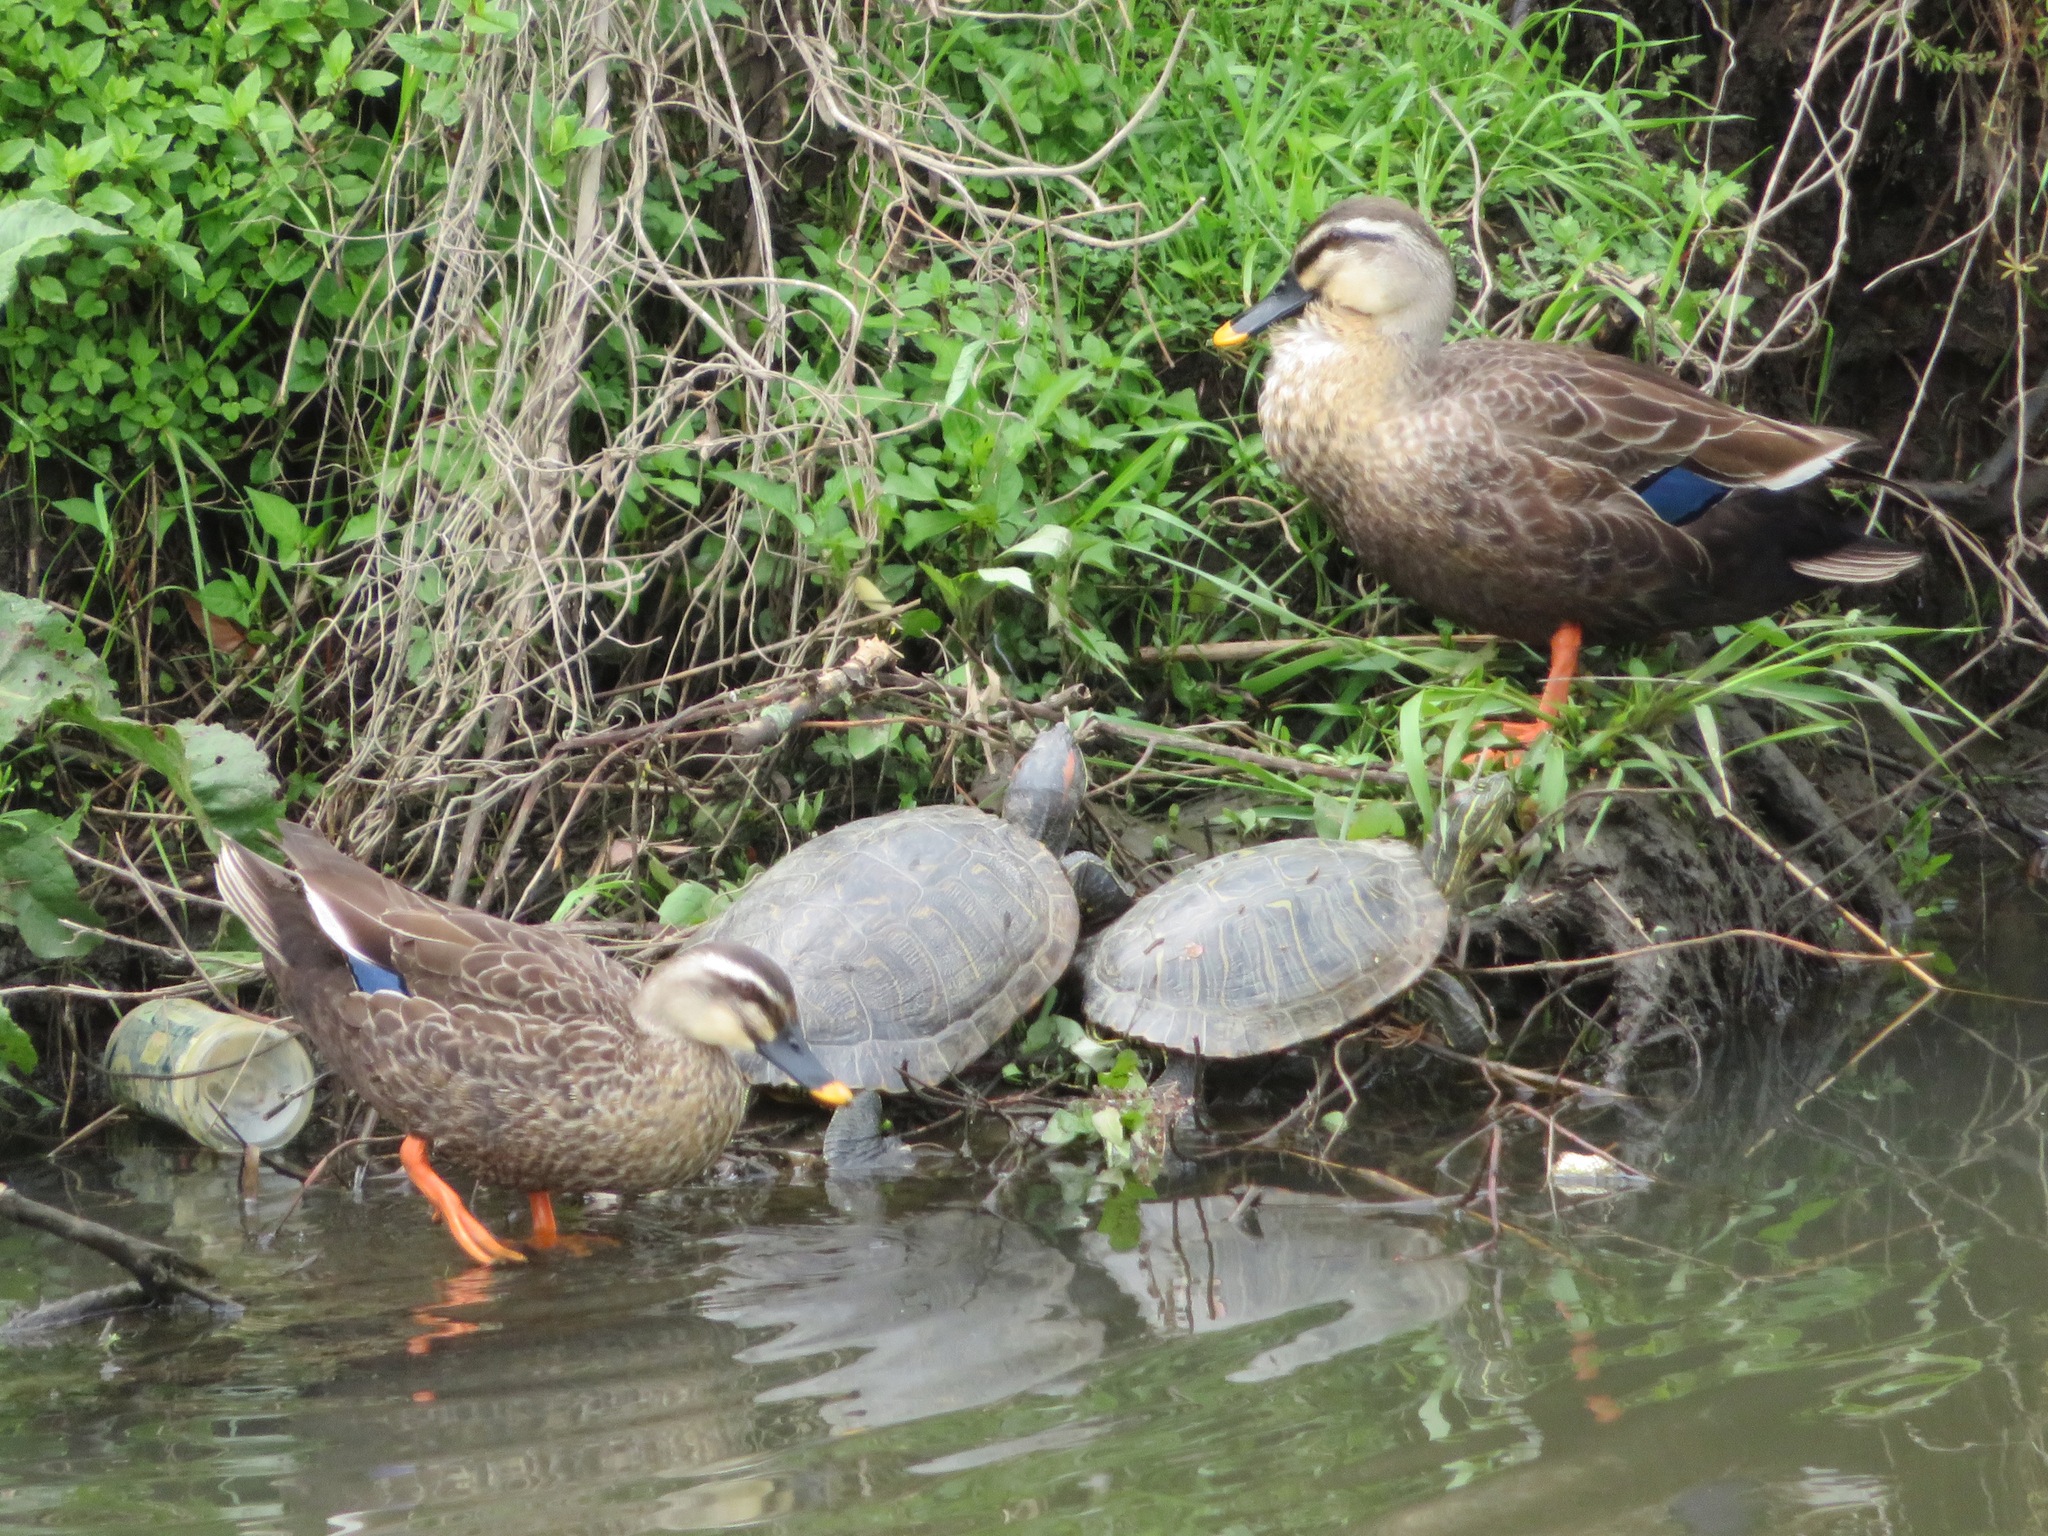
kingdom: Animalia
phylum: Chordata
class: Aves
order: Anseriformes
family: Anatidae
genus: Anas
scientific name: Anas zonorhyncha
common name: Eastern spot-billed duck
